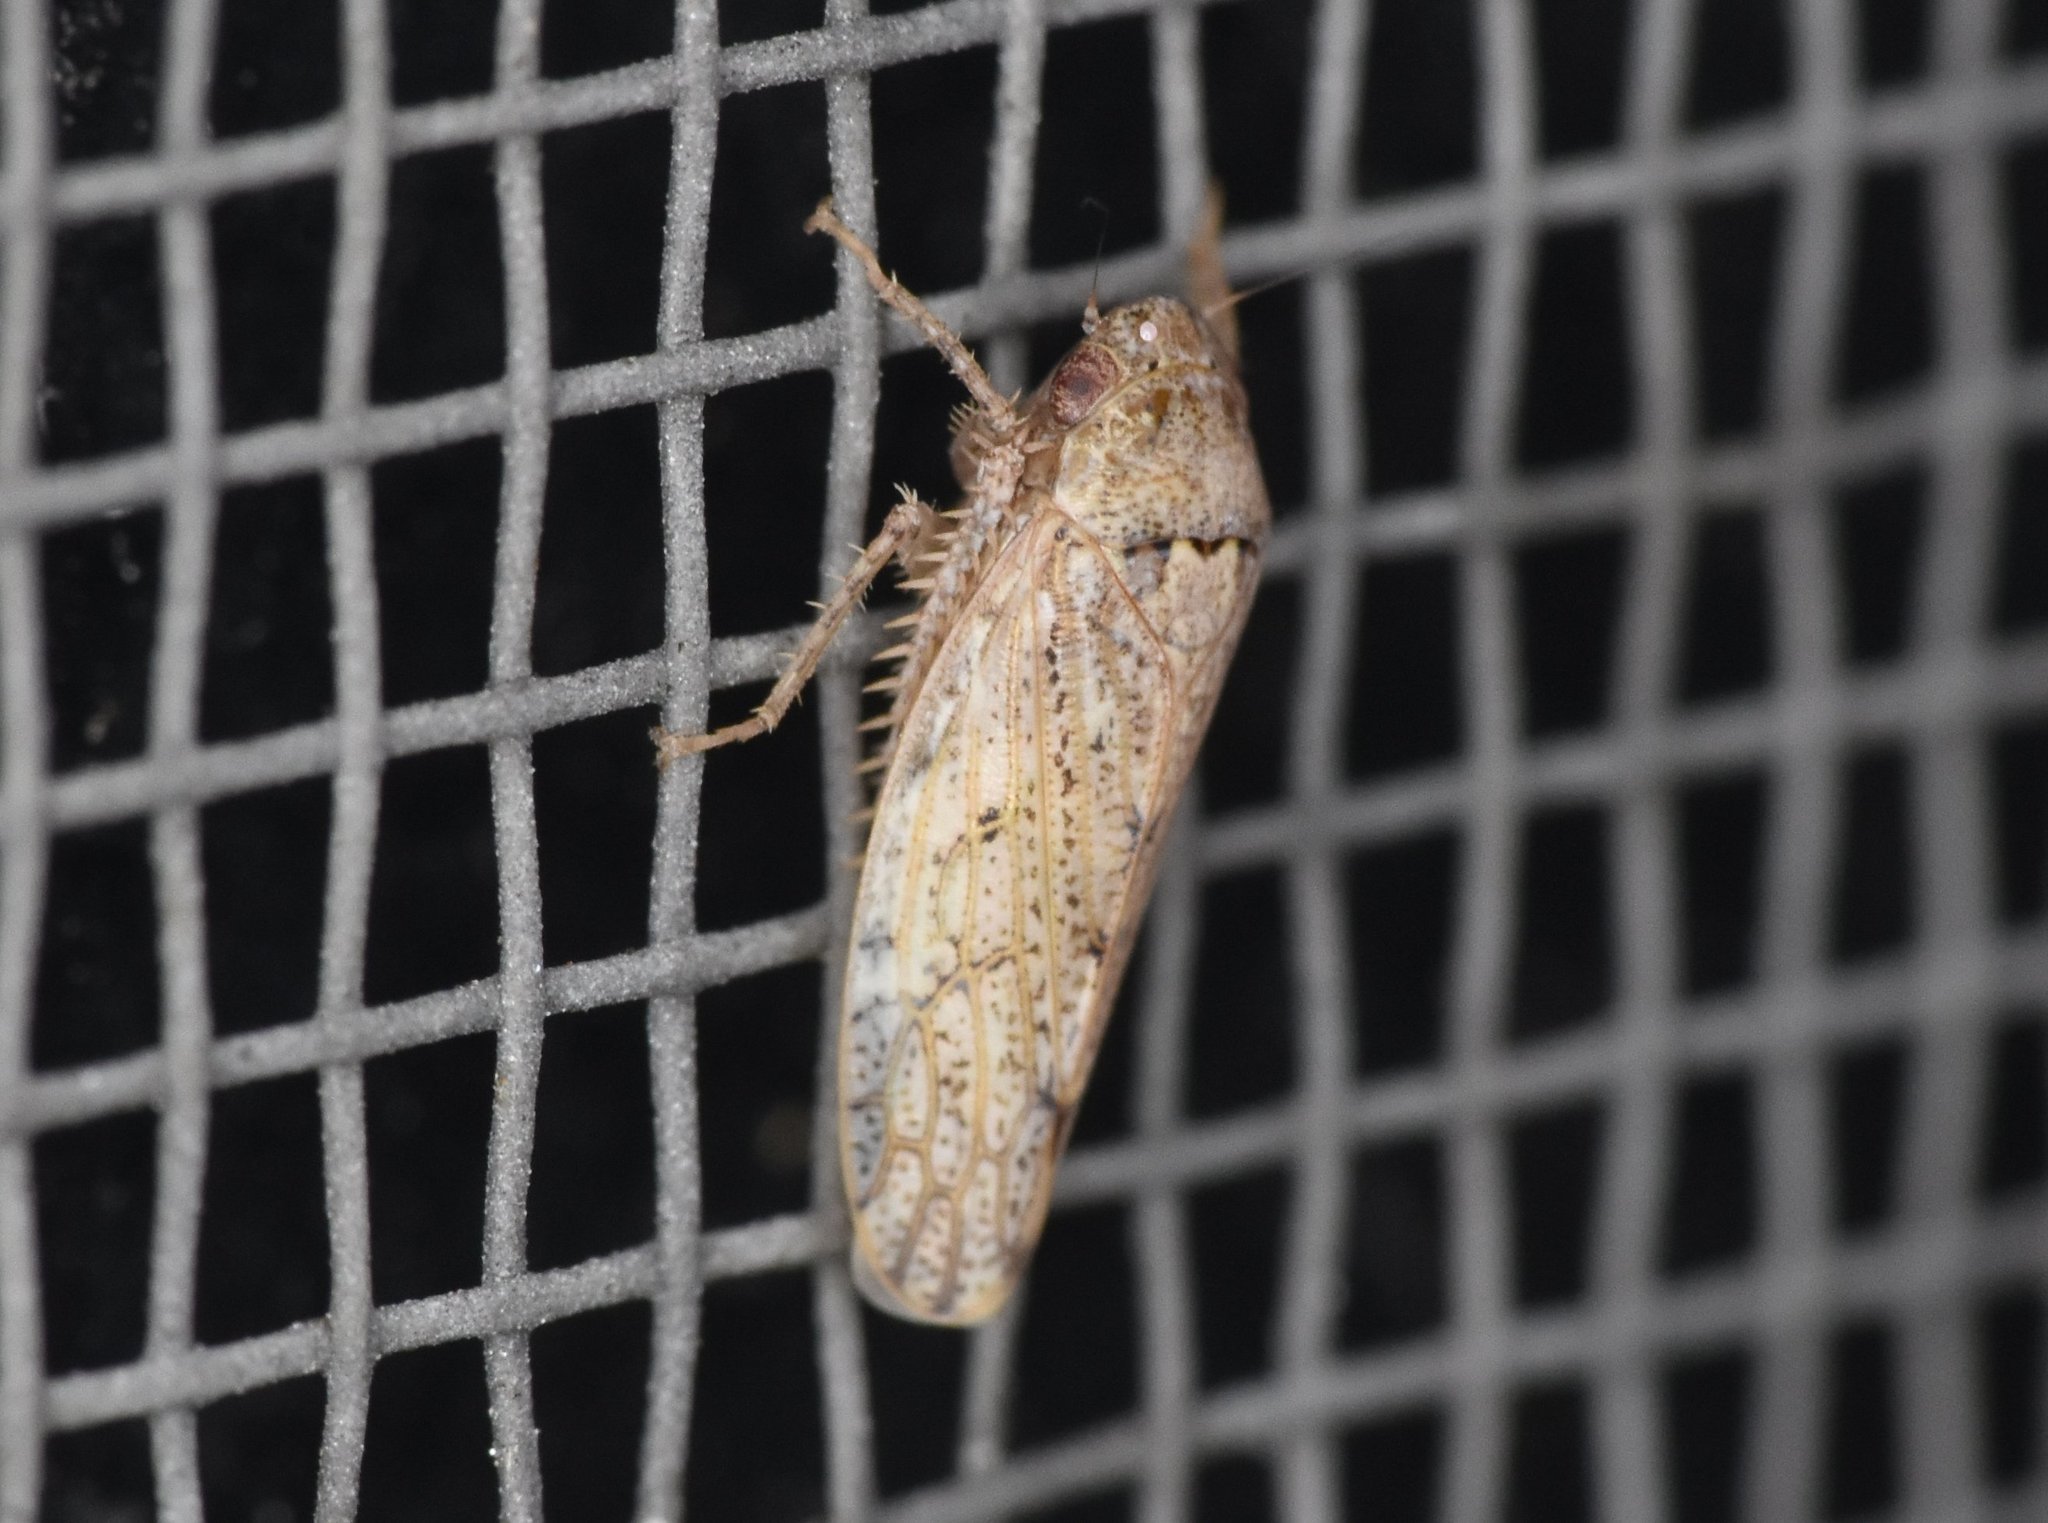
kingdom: Animalia
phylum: Arthropoda
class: Insecta
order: Hemiptera
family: Cicadellidae
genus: Curtara
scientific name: Curtara insularis
